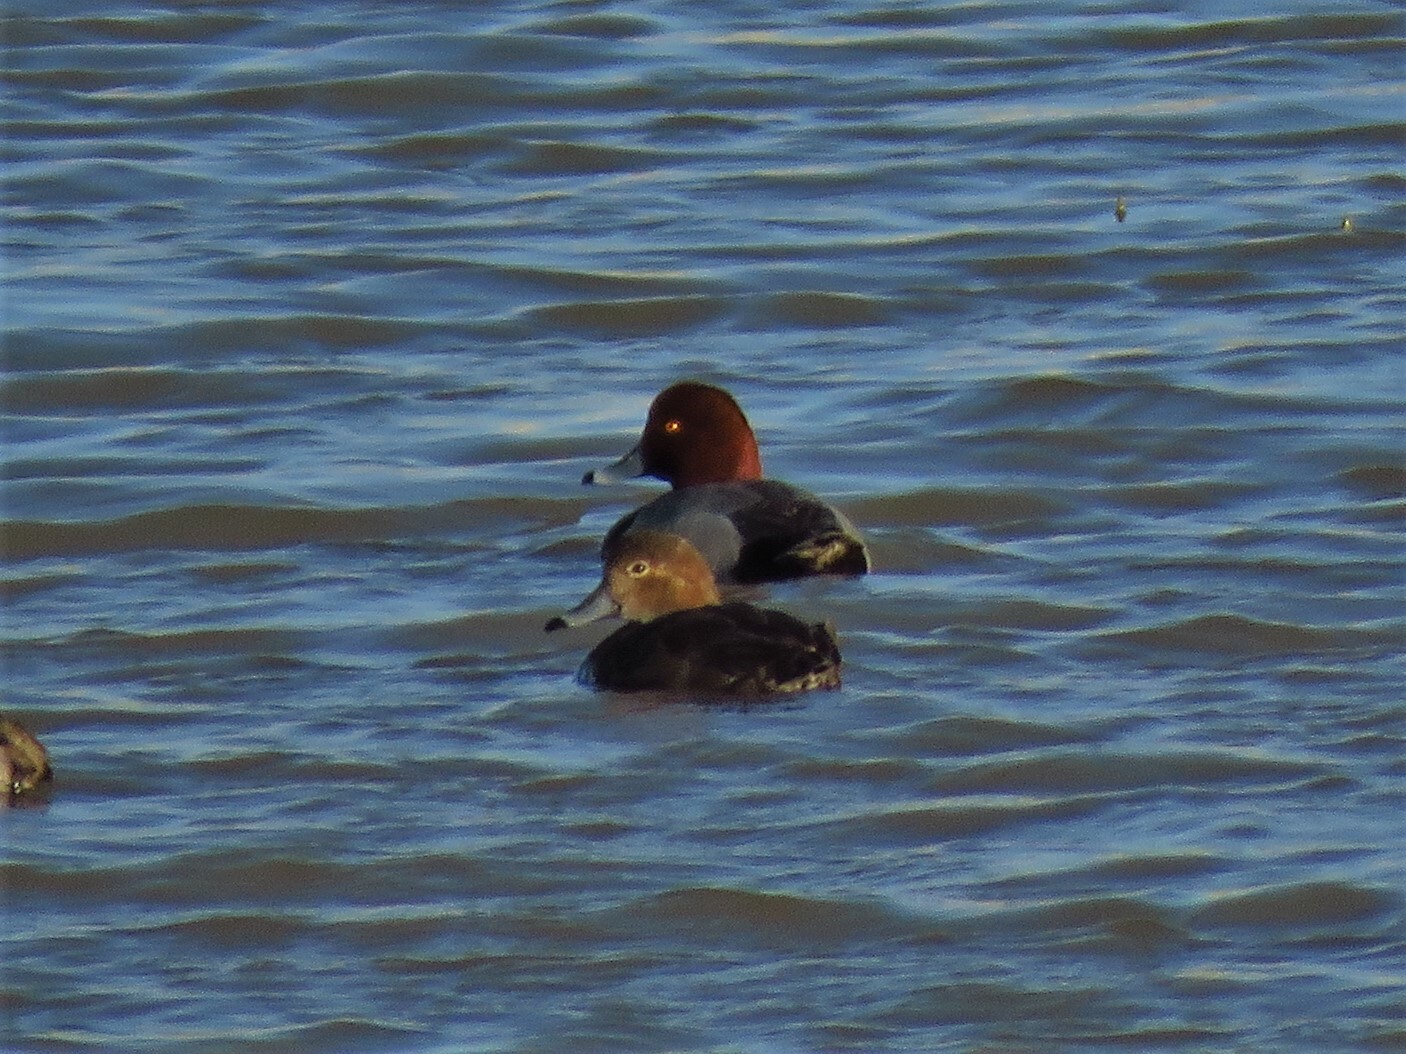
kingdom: Animalia
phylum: Chordata
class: Aves
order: Anseriformes
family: Anatidae
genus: Aythya
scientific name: Aythya americana
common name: Redhead
